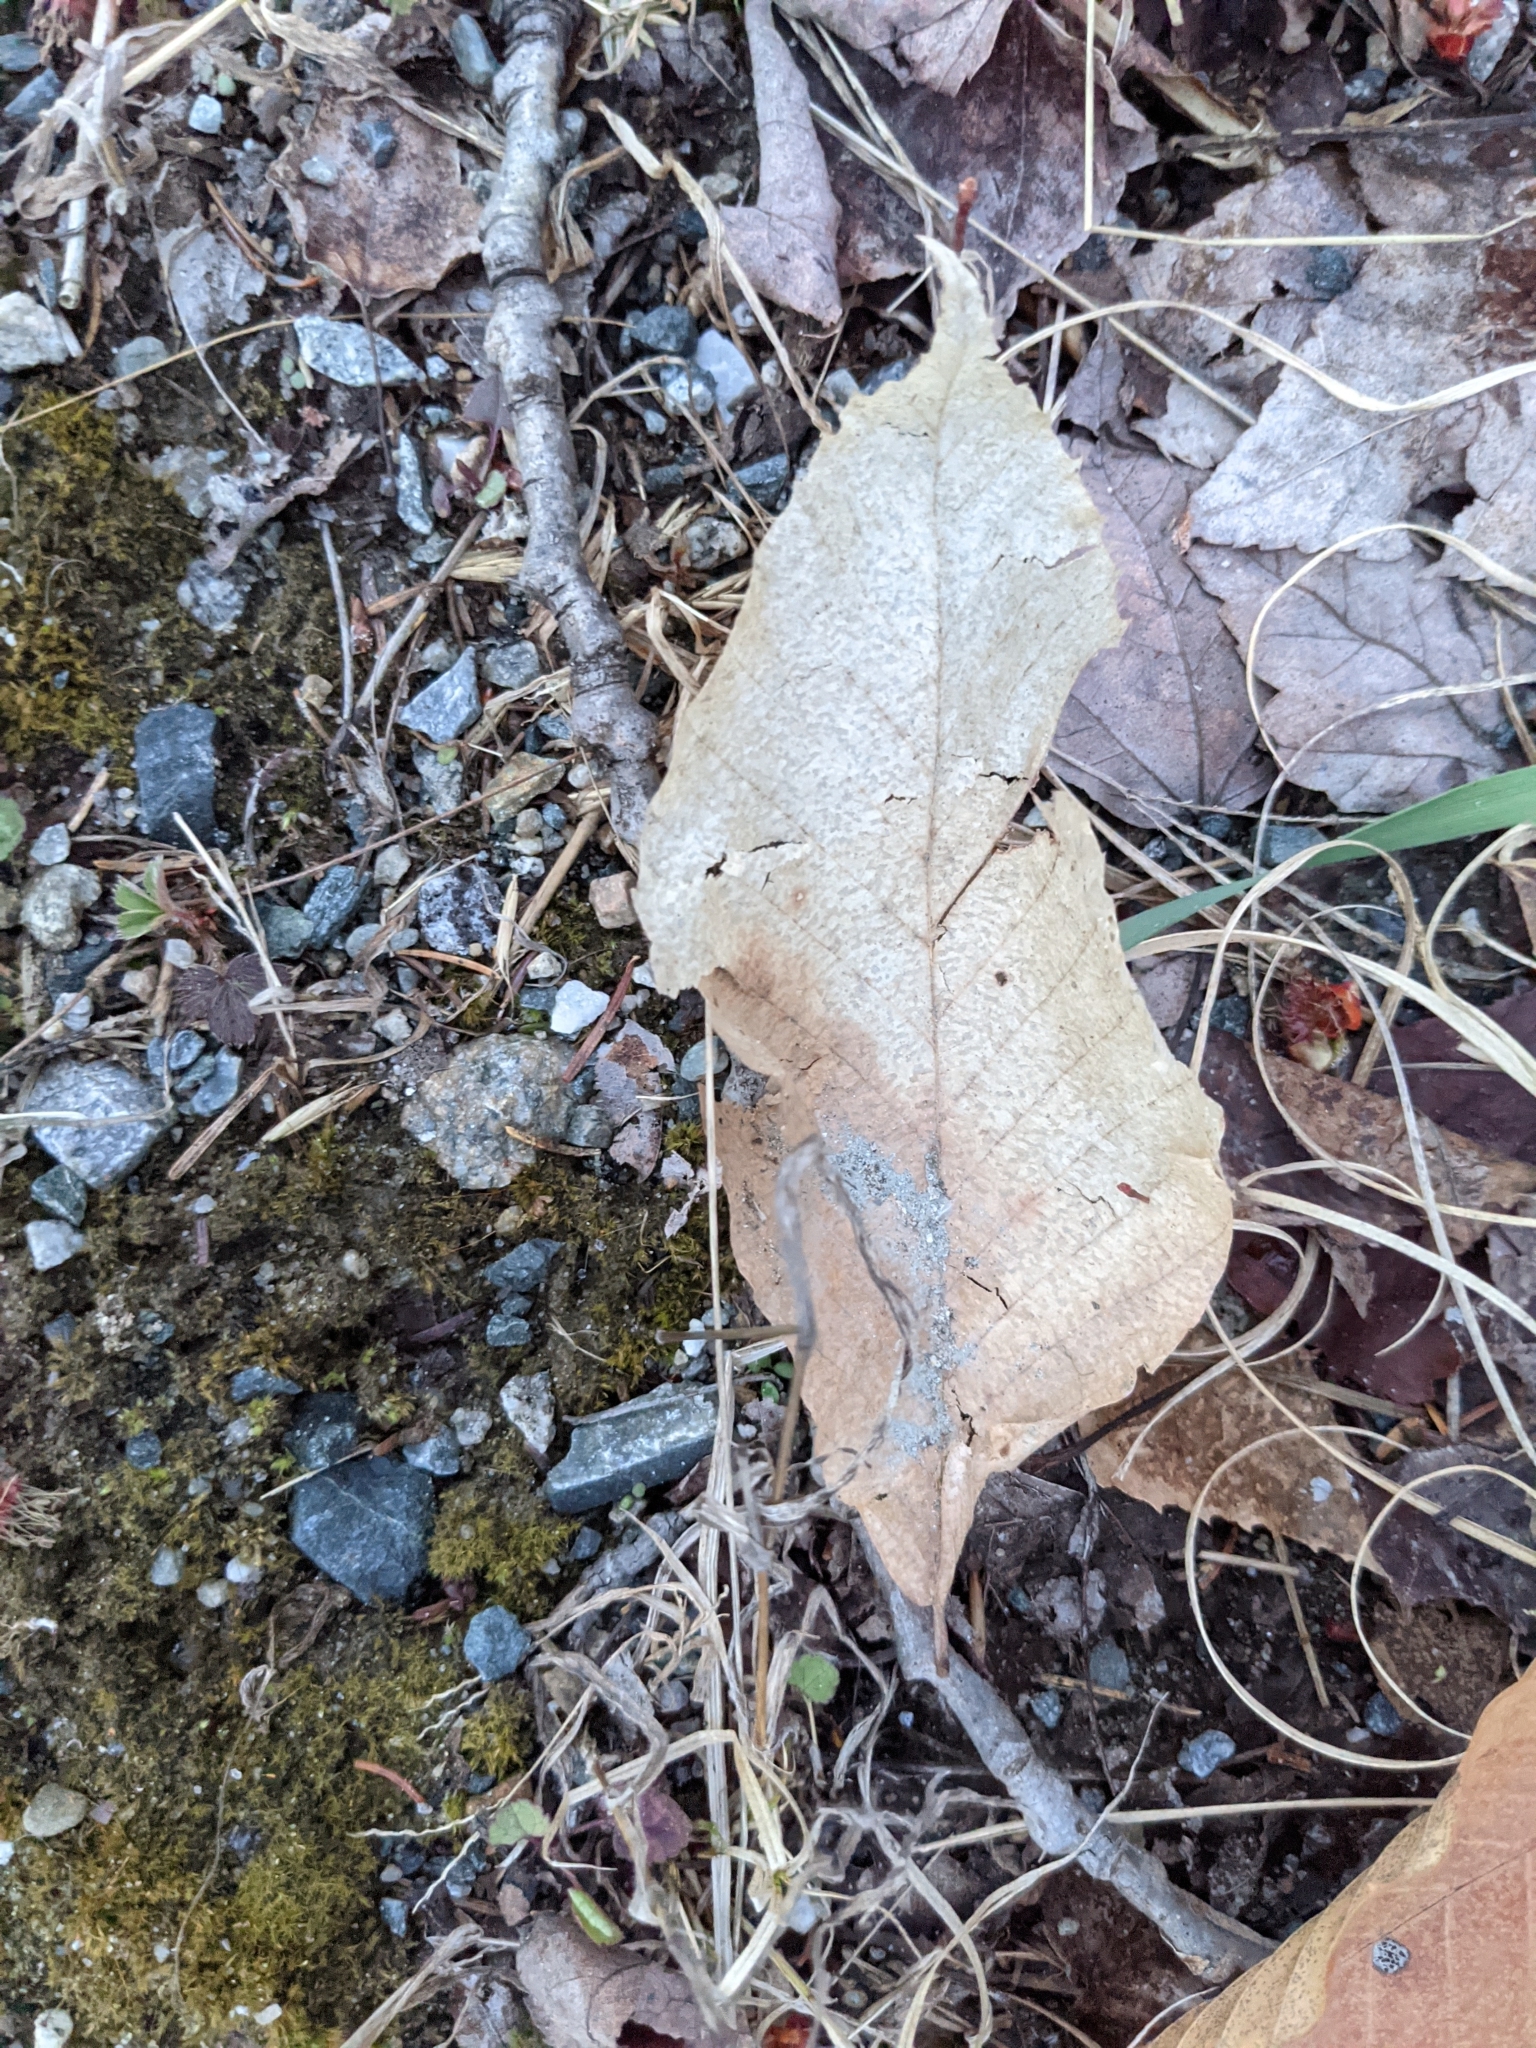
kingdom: Plantae
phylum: Tracheophyta
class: Magnoliopsida
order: Fagales
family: Fagaceae
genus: Fagus
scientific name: Fagus grandifolia
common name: American beech
